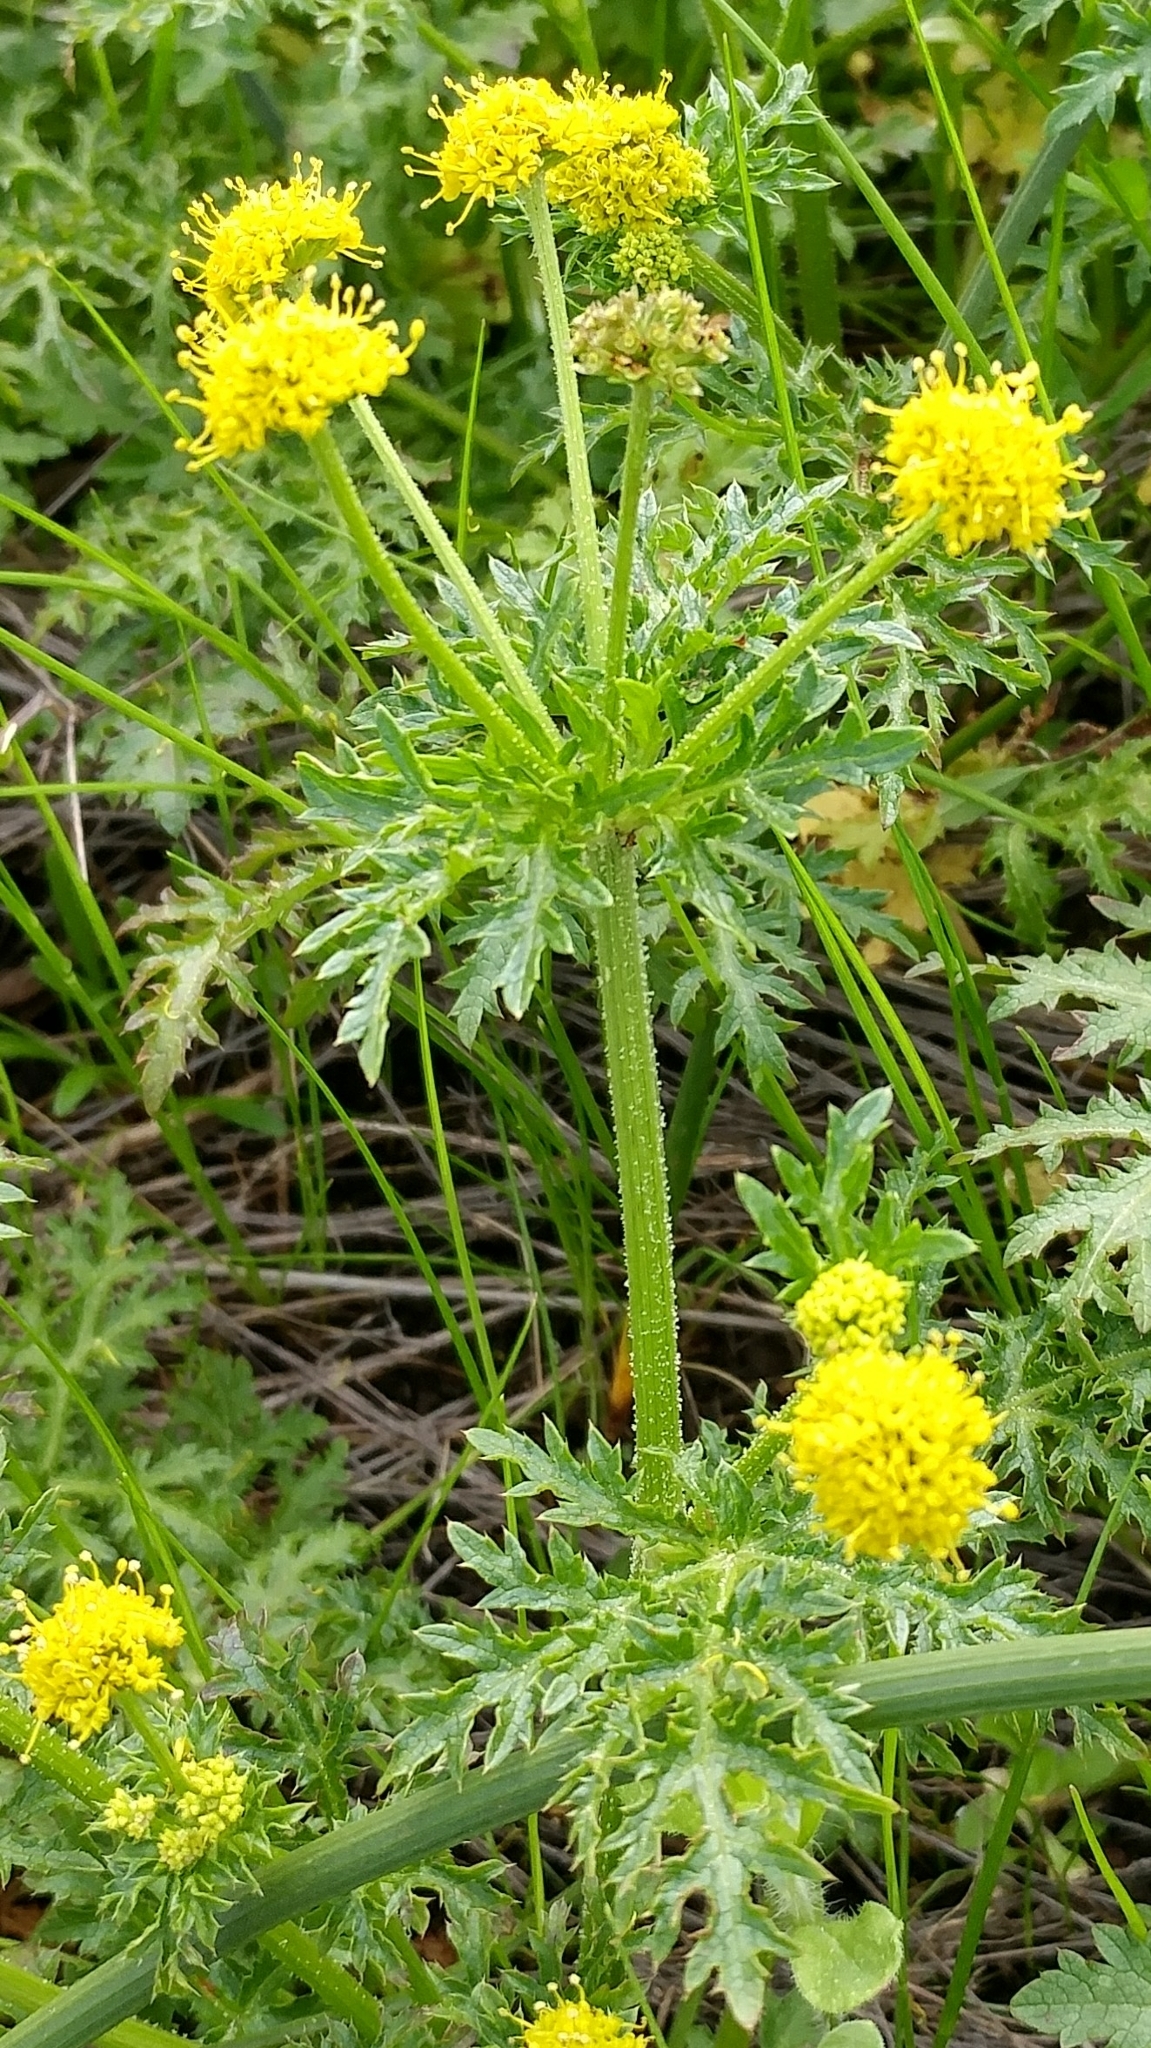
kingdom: Plantae
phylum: Tracheophyta
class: Magnoliopsida
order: Apiales
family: Apiaceae
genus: Sanicula
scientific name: Sanicula arguta
